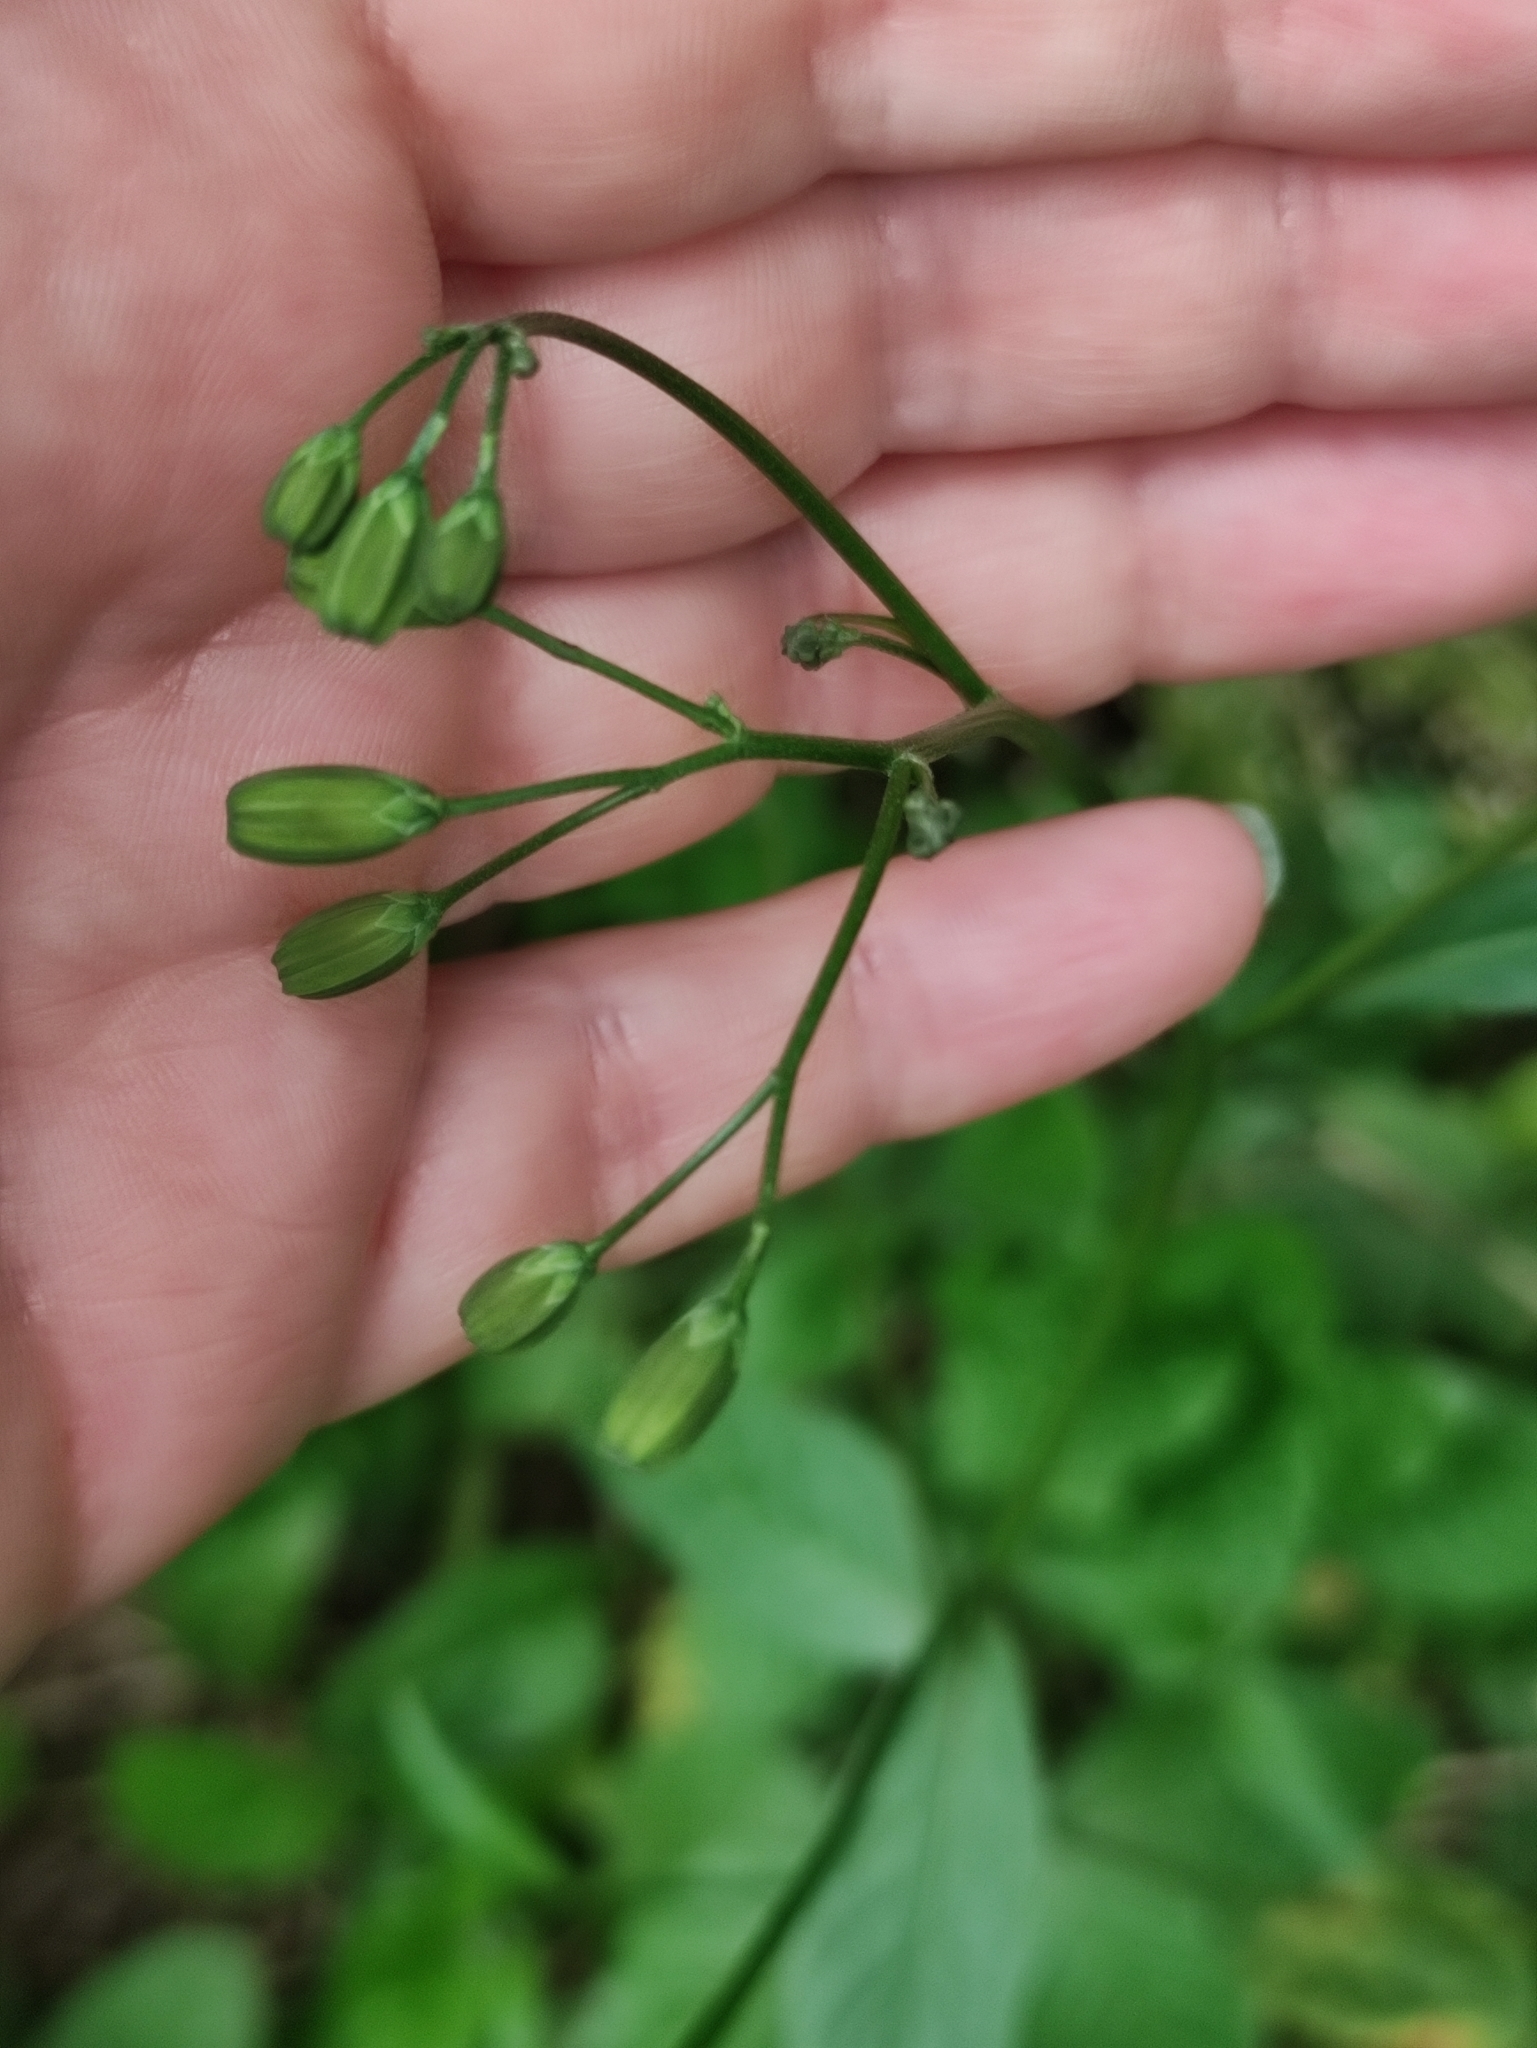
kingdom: Plantae
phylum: Tracheophyta
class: Magnoliopsida
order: Asterales
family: Asteraceae
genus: Lapsana
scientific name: Lapsana communis
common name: Nipplewort
